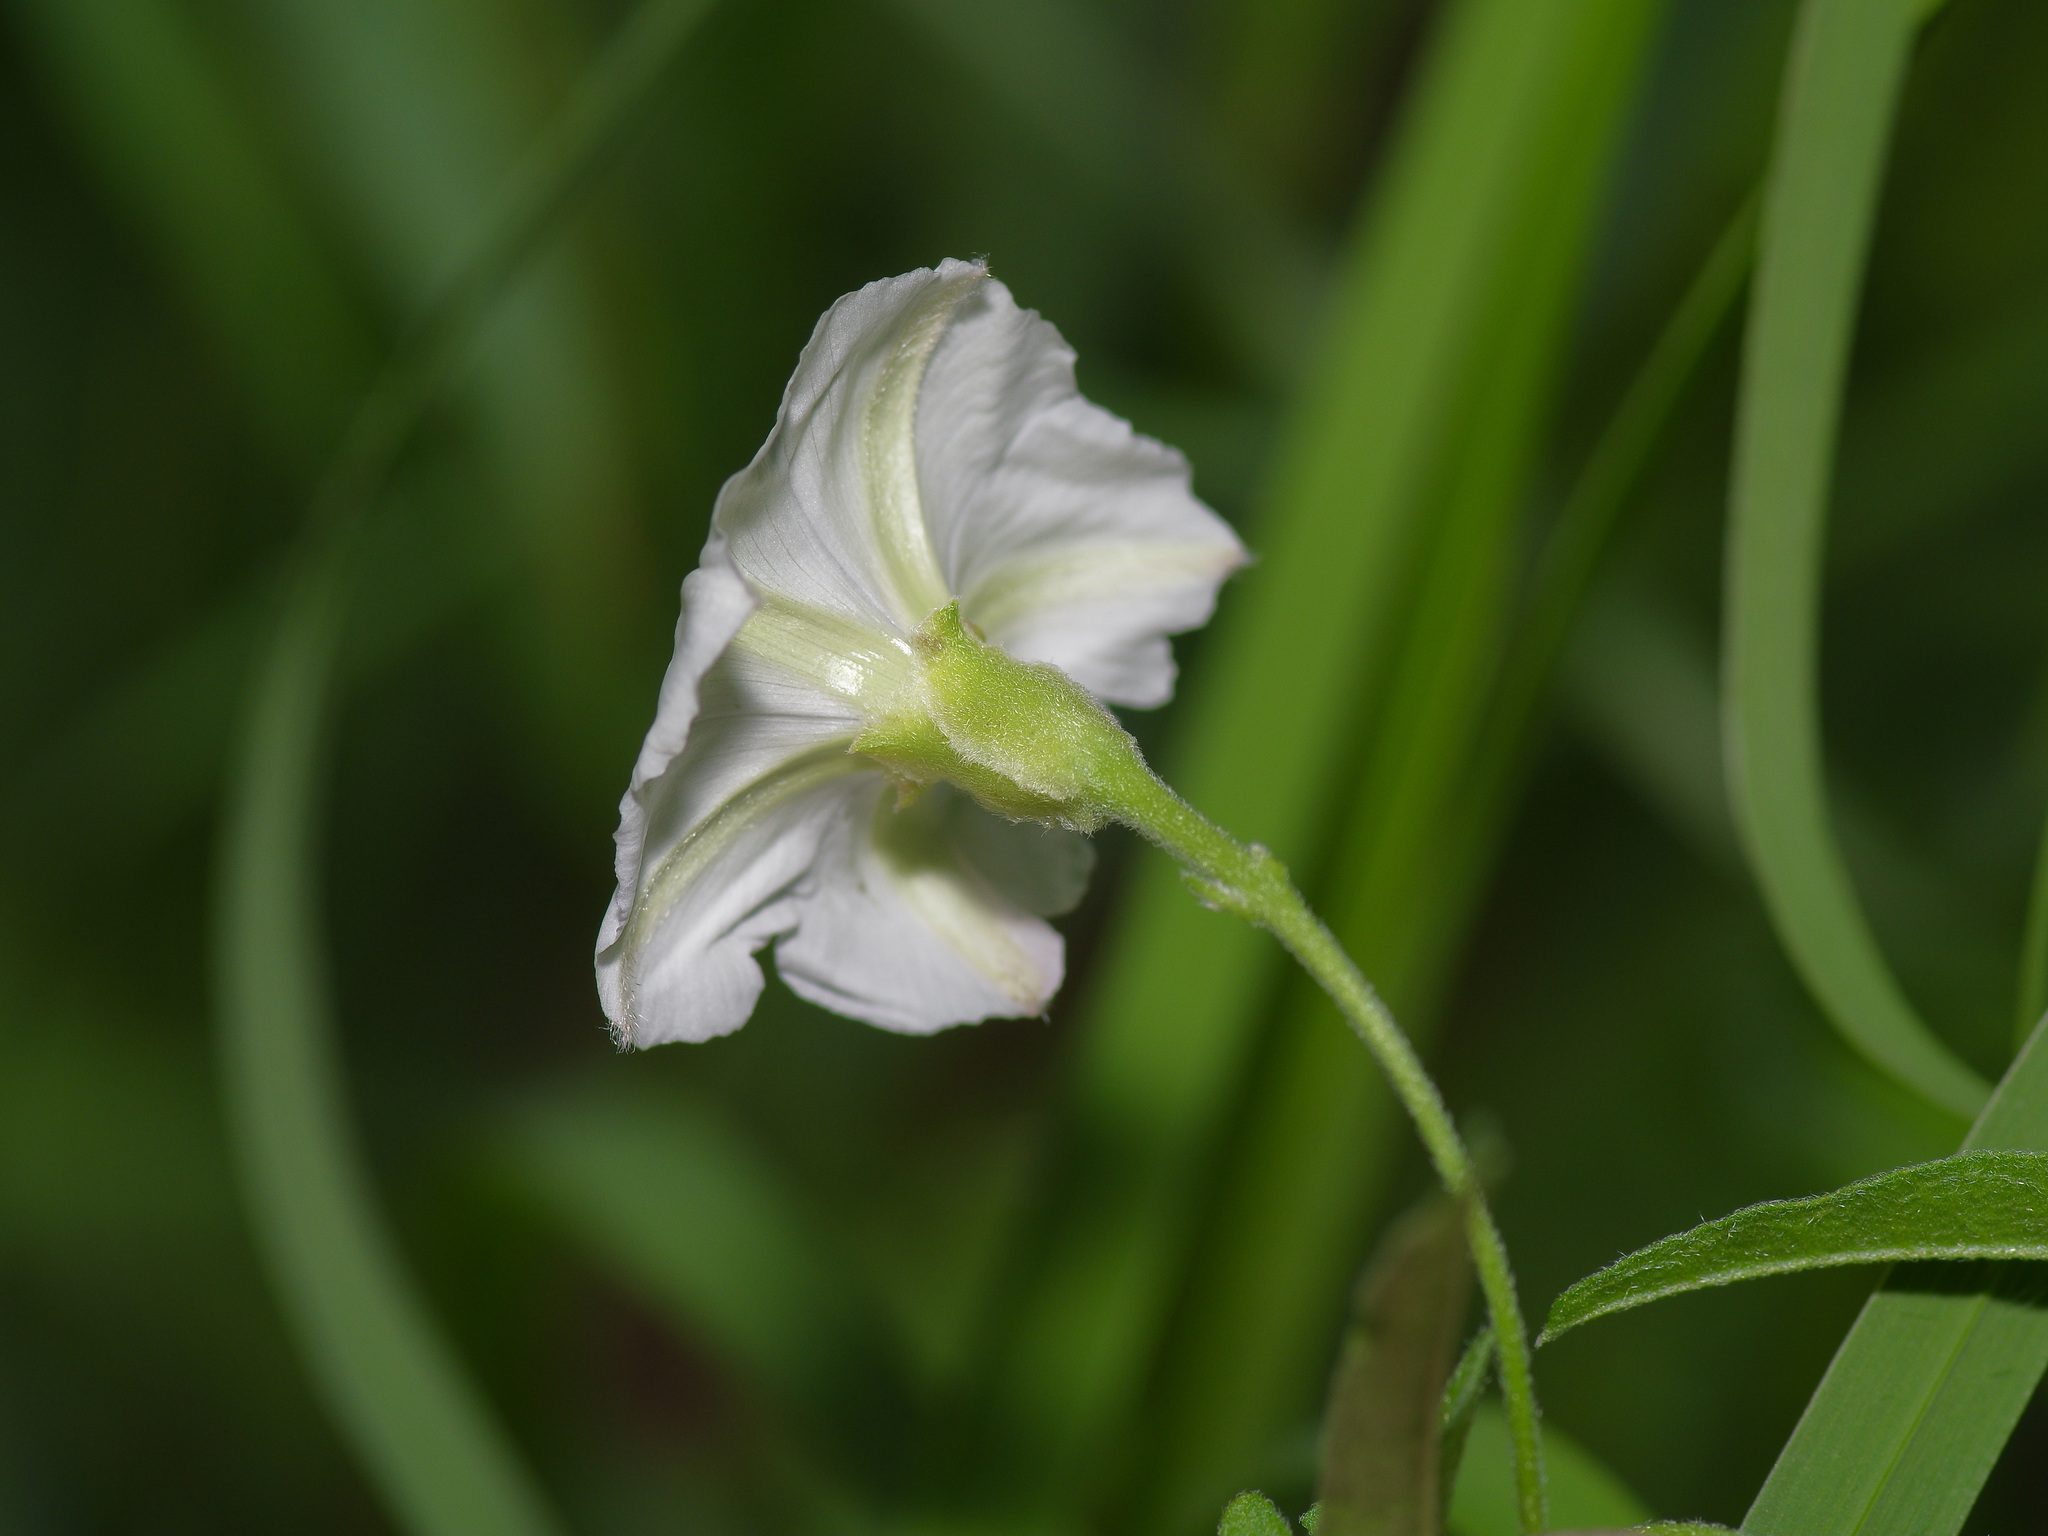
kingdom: Plantae
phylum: Tracheophyta
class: Magnoliopsida
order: Solanales
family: Convolvulaceae
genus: Convolvulus
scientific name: Convolvulus equitans
